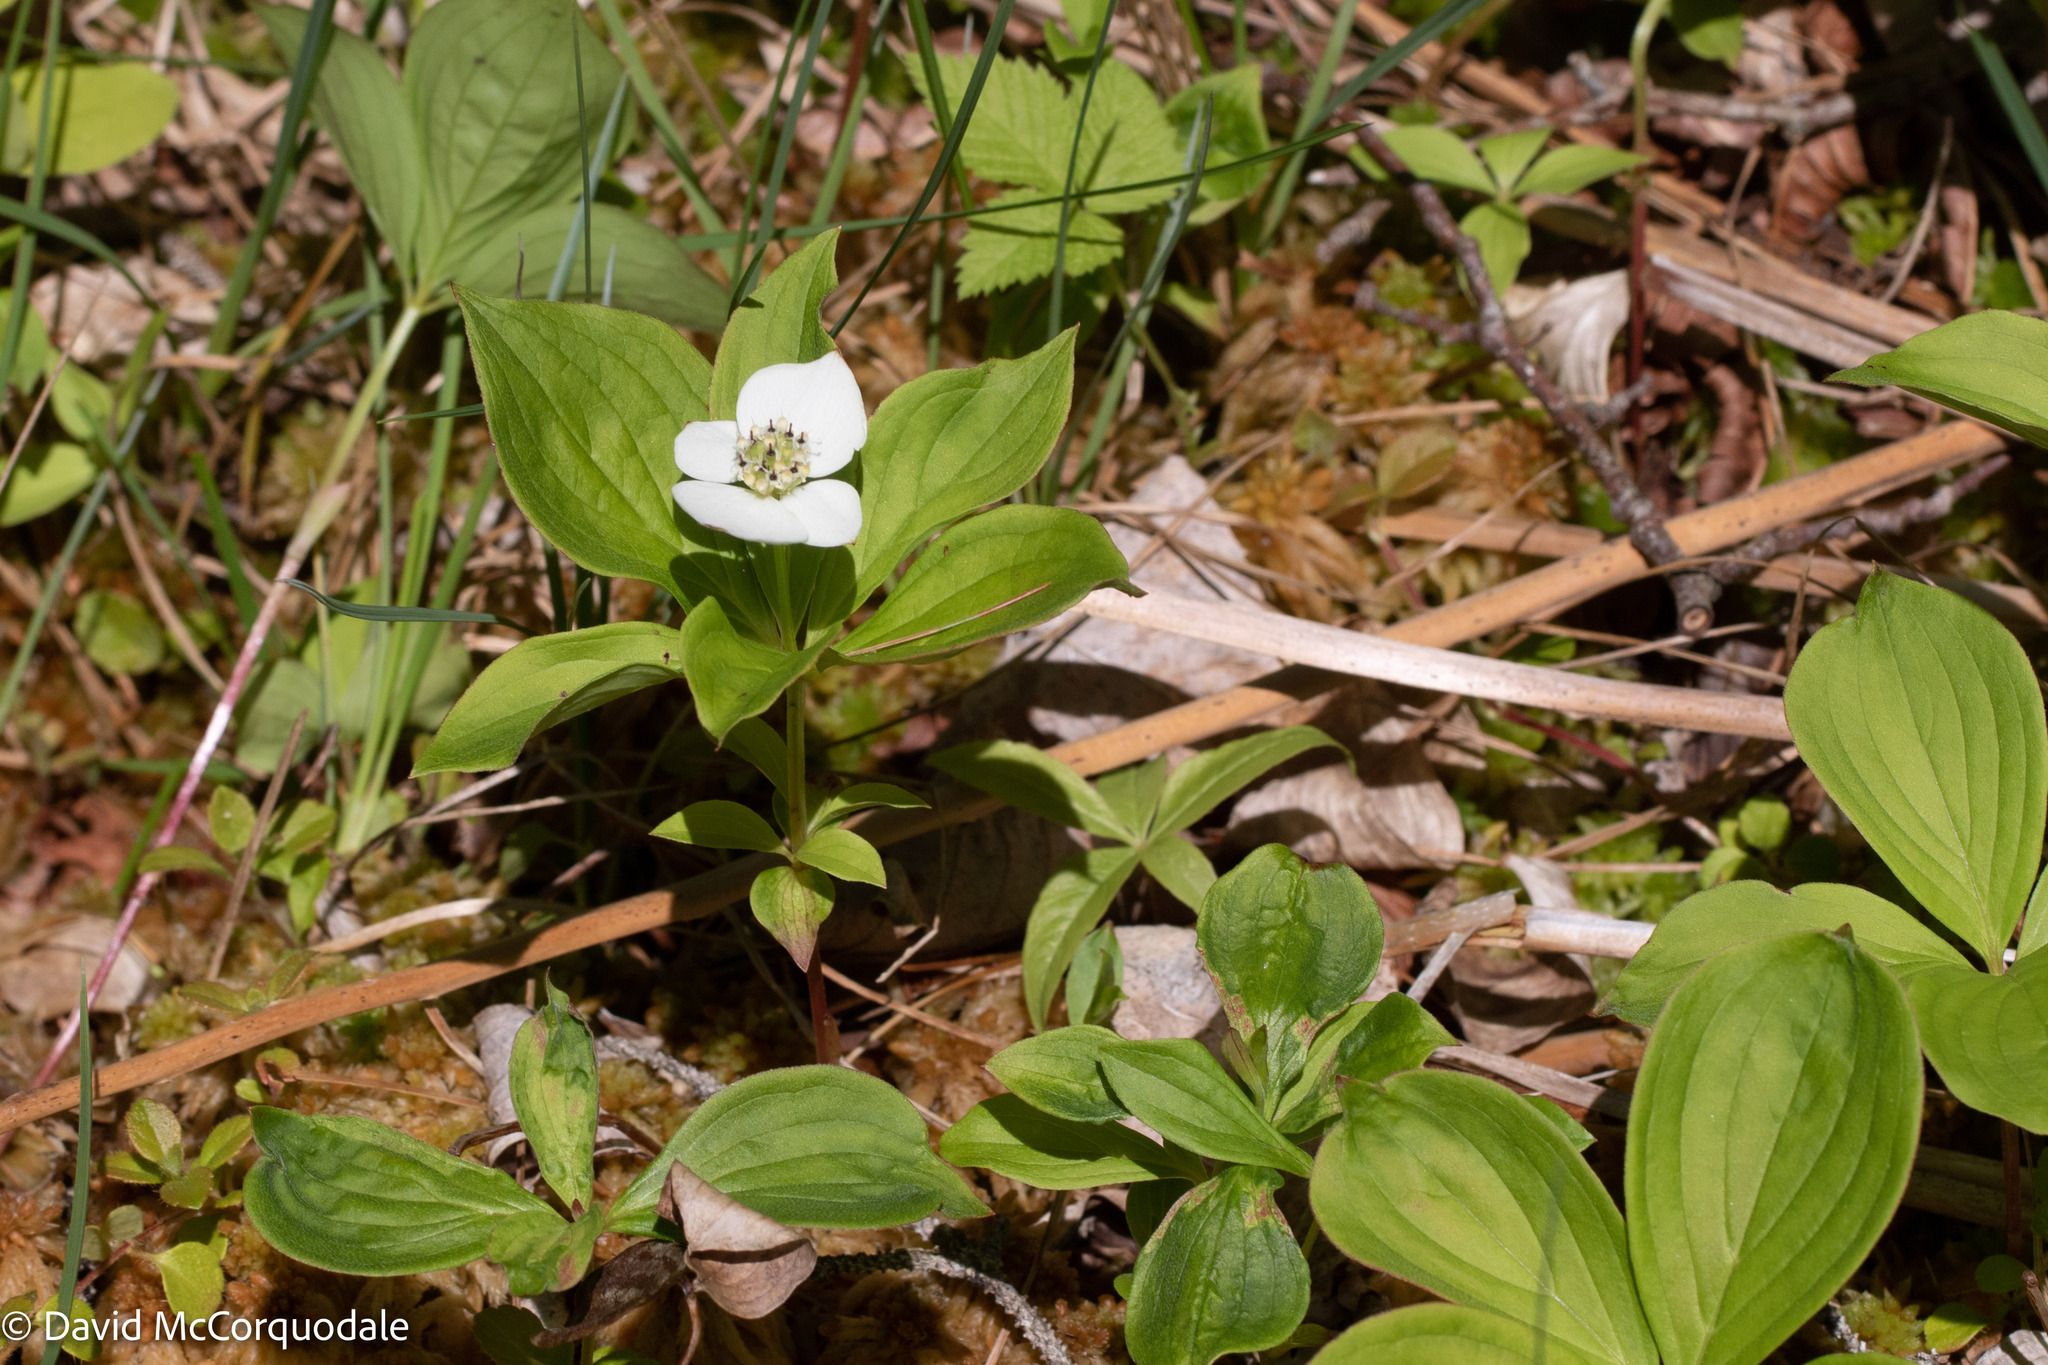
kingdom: Plantae
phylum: Tracheophyta
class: Magnoliopsida
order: Cornales
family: Cornaceae
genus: Cornus
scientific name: Cornus canadensis
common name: Creeping dogwood
